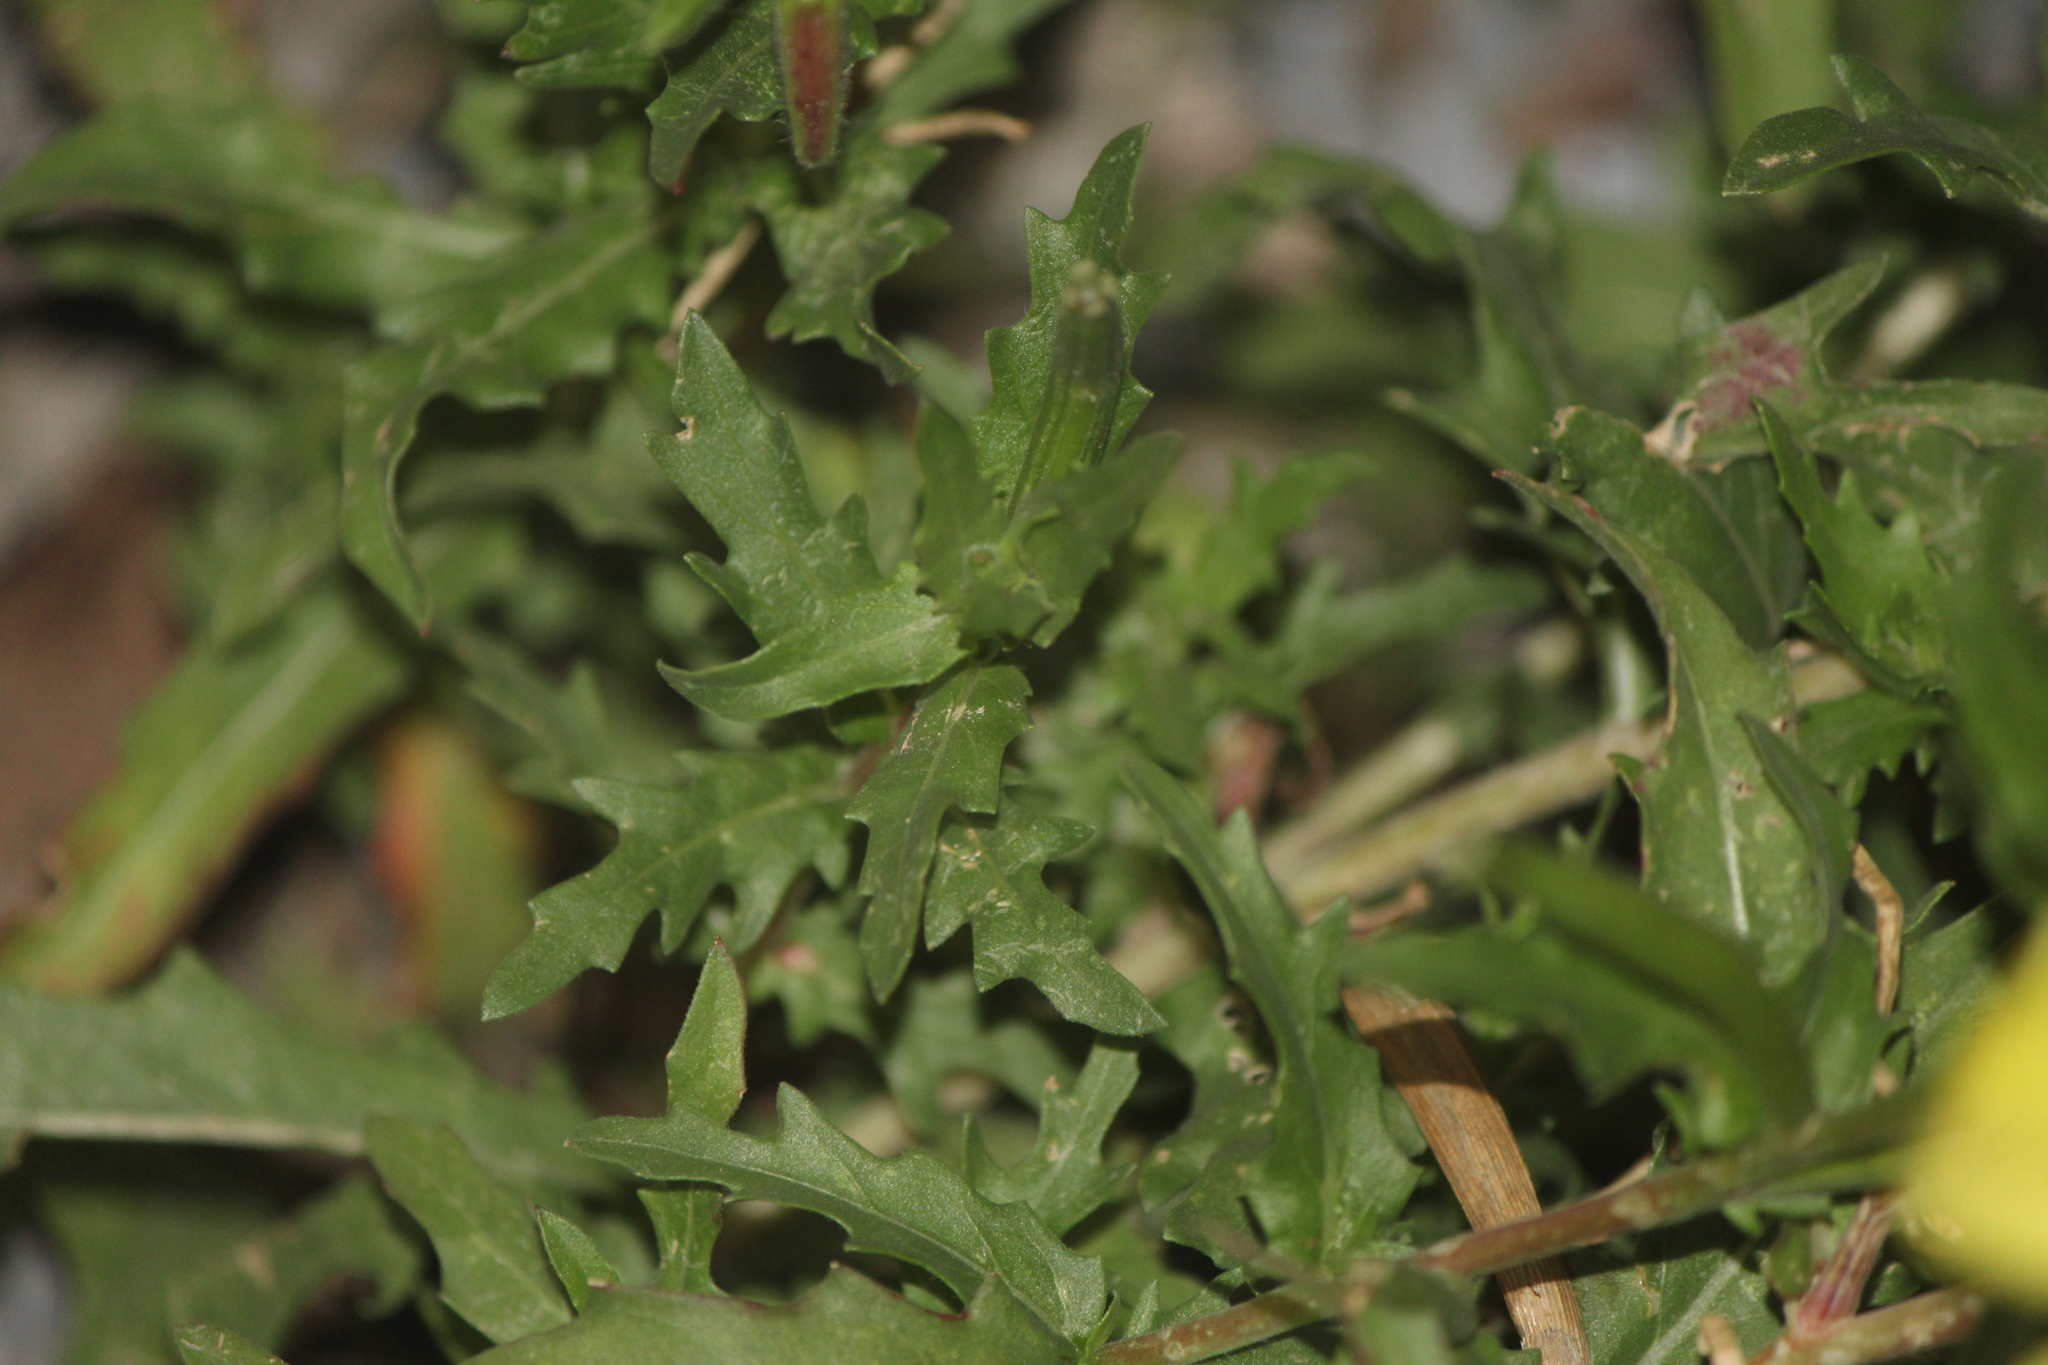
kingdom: Plantae
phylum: Tracheophyta
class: Magnoliopsida
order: Myrtales
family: Onagraceae
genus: Oenothera
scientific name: Oenothera pubescens
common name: South american evening-primrose
